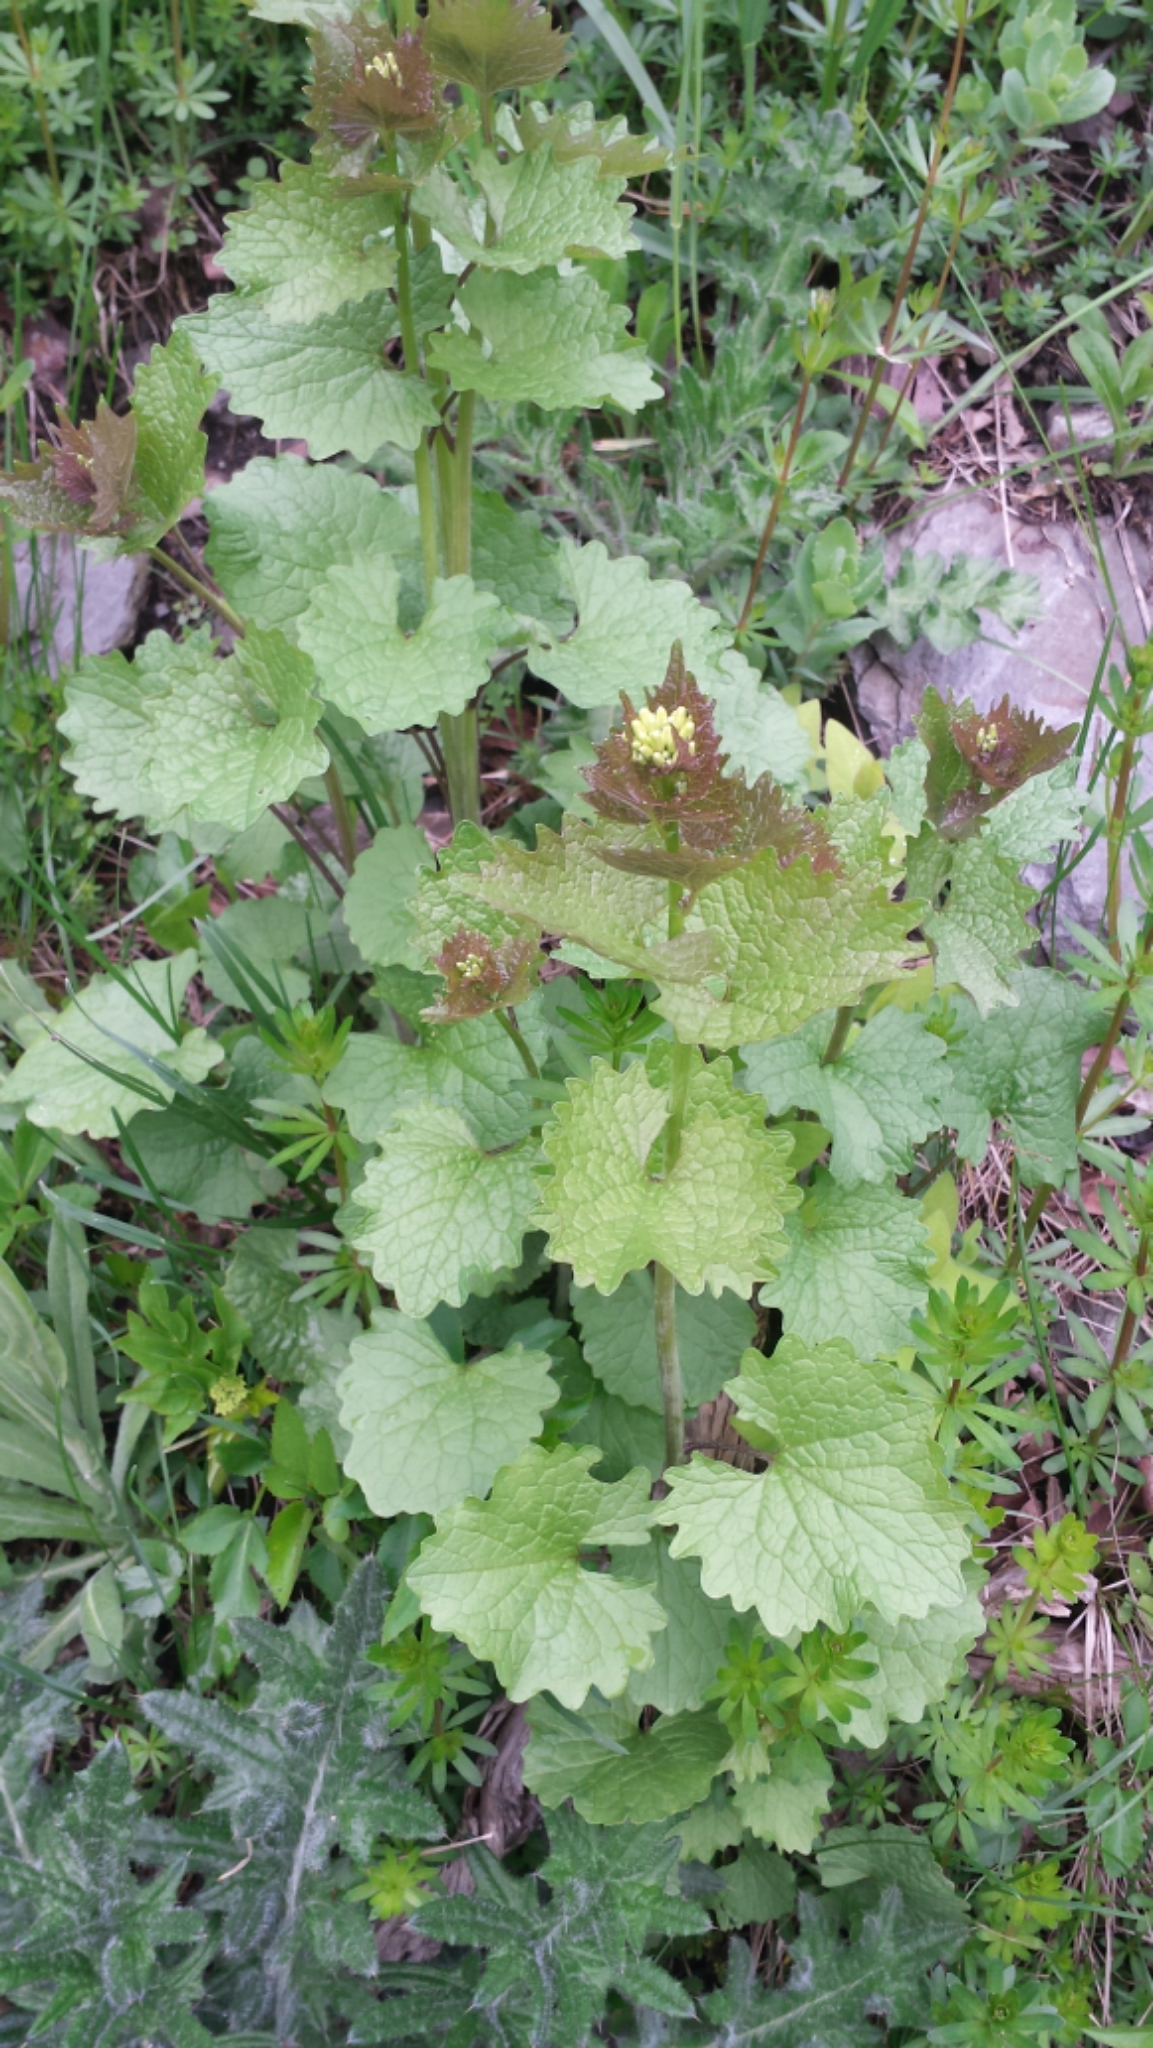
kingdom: Plantae
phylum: Tracheophyta
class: Magnoliopsida
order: Brassicales
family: Brassicaceae
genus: Alliaria
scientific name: Alliaria petiolata
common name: Garlic mustard
